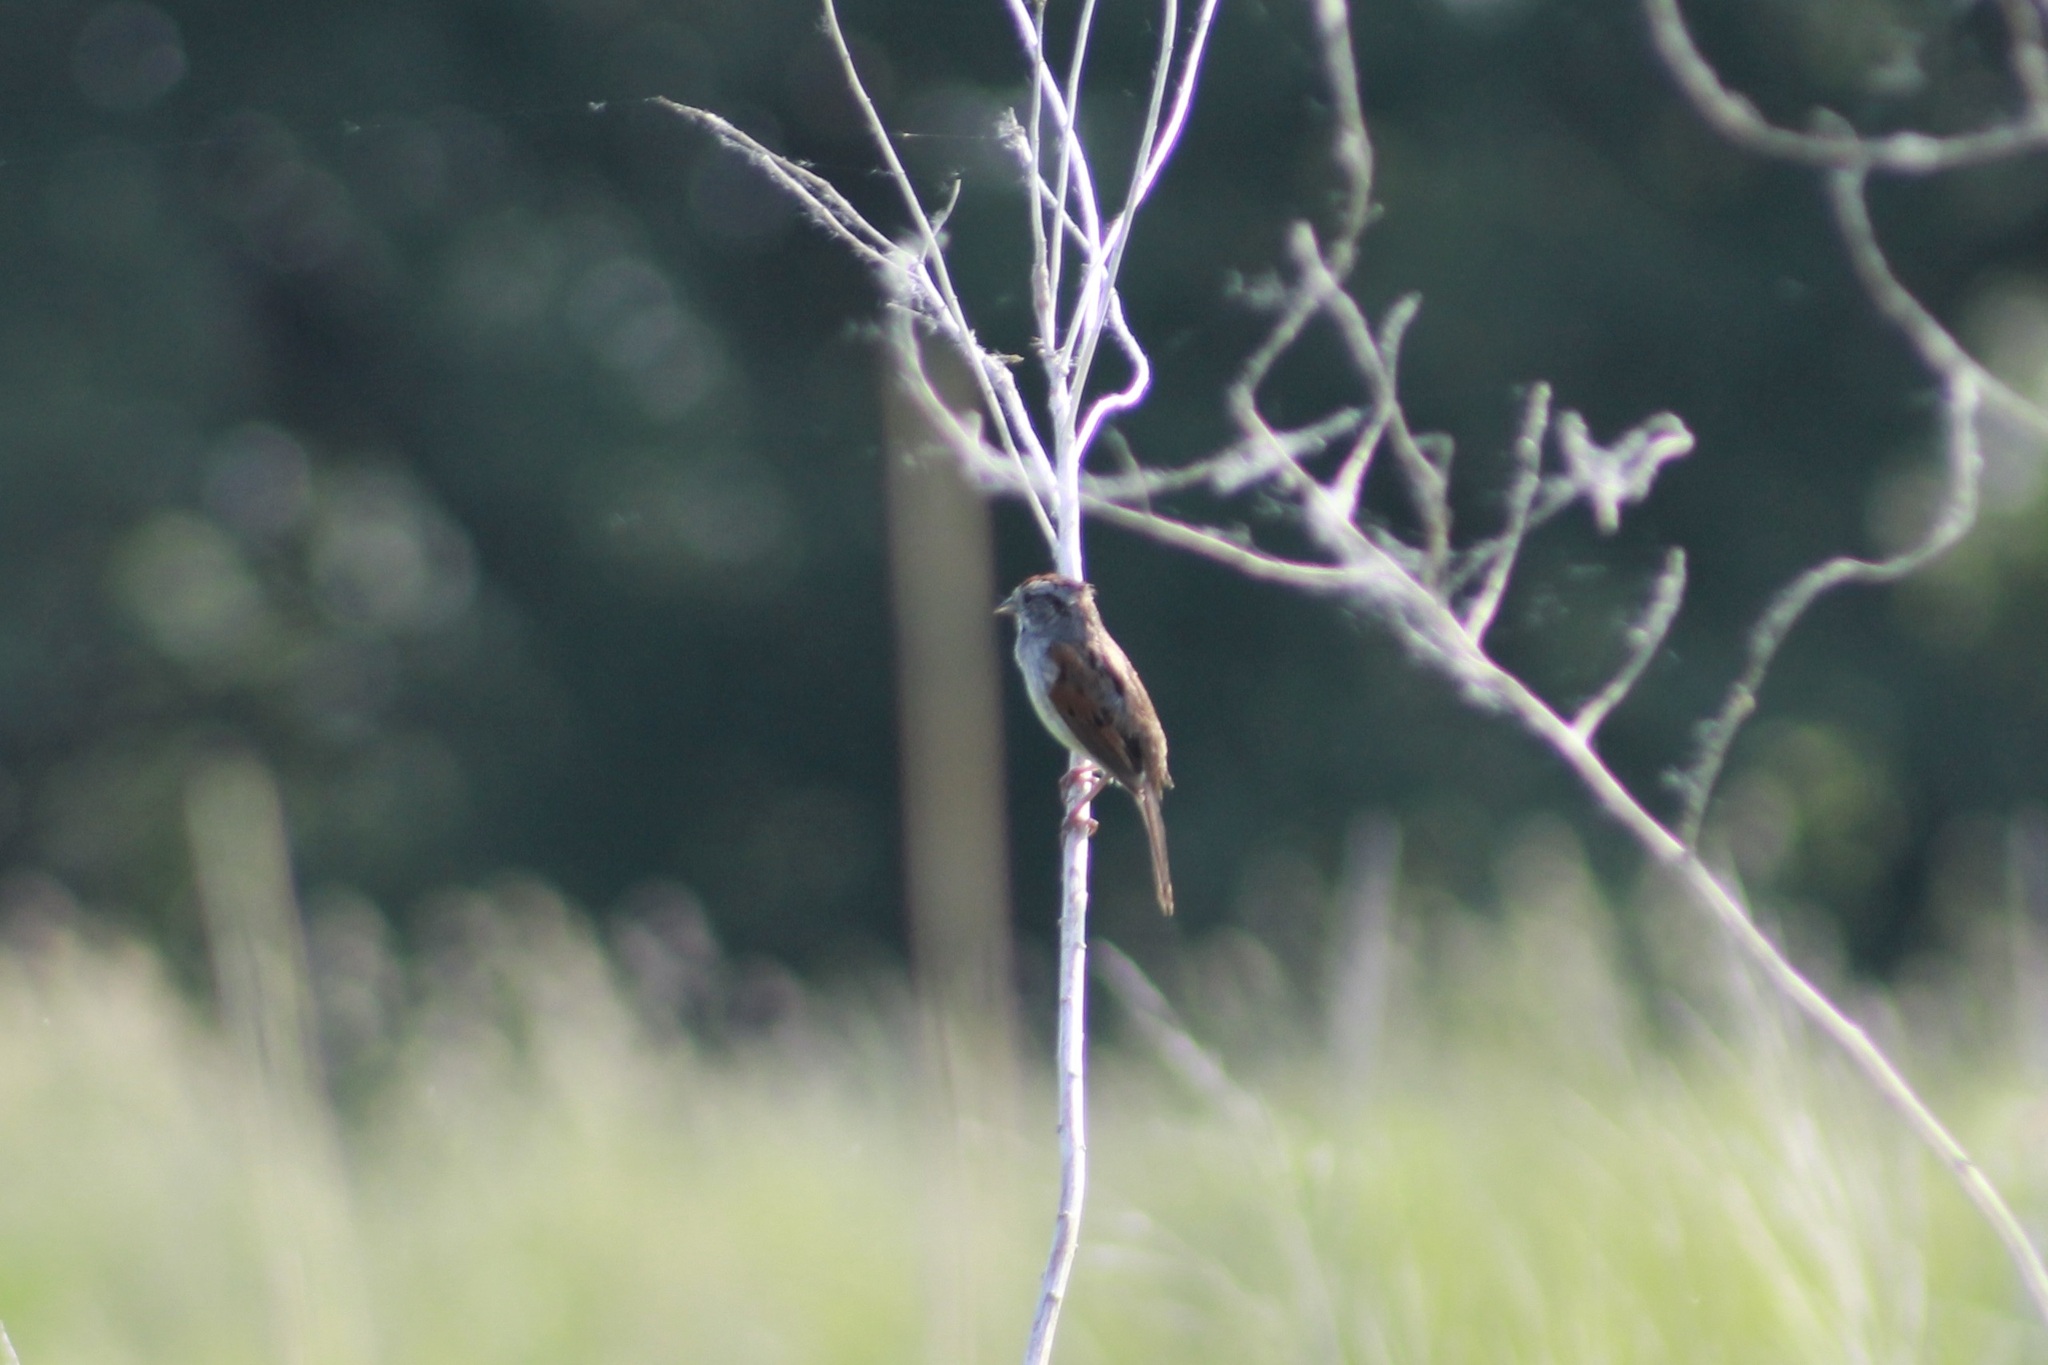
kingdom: Animalia
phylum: Chordata
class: Aves
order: Passeriformes
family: Passerellidae
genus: Melospiza
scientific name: Melospiza georgiana
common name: Swamp sparrow
